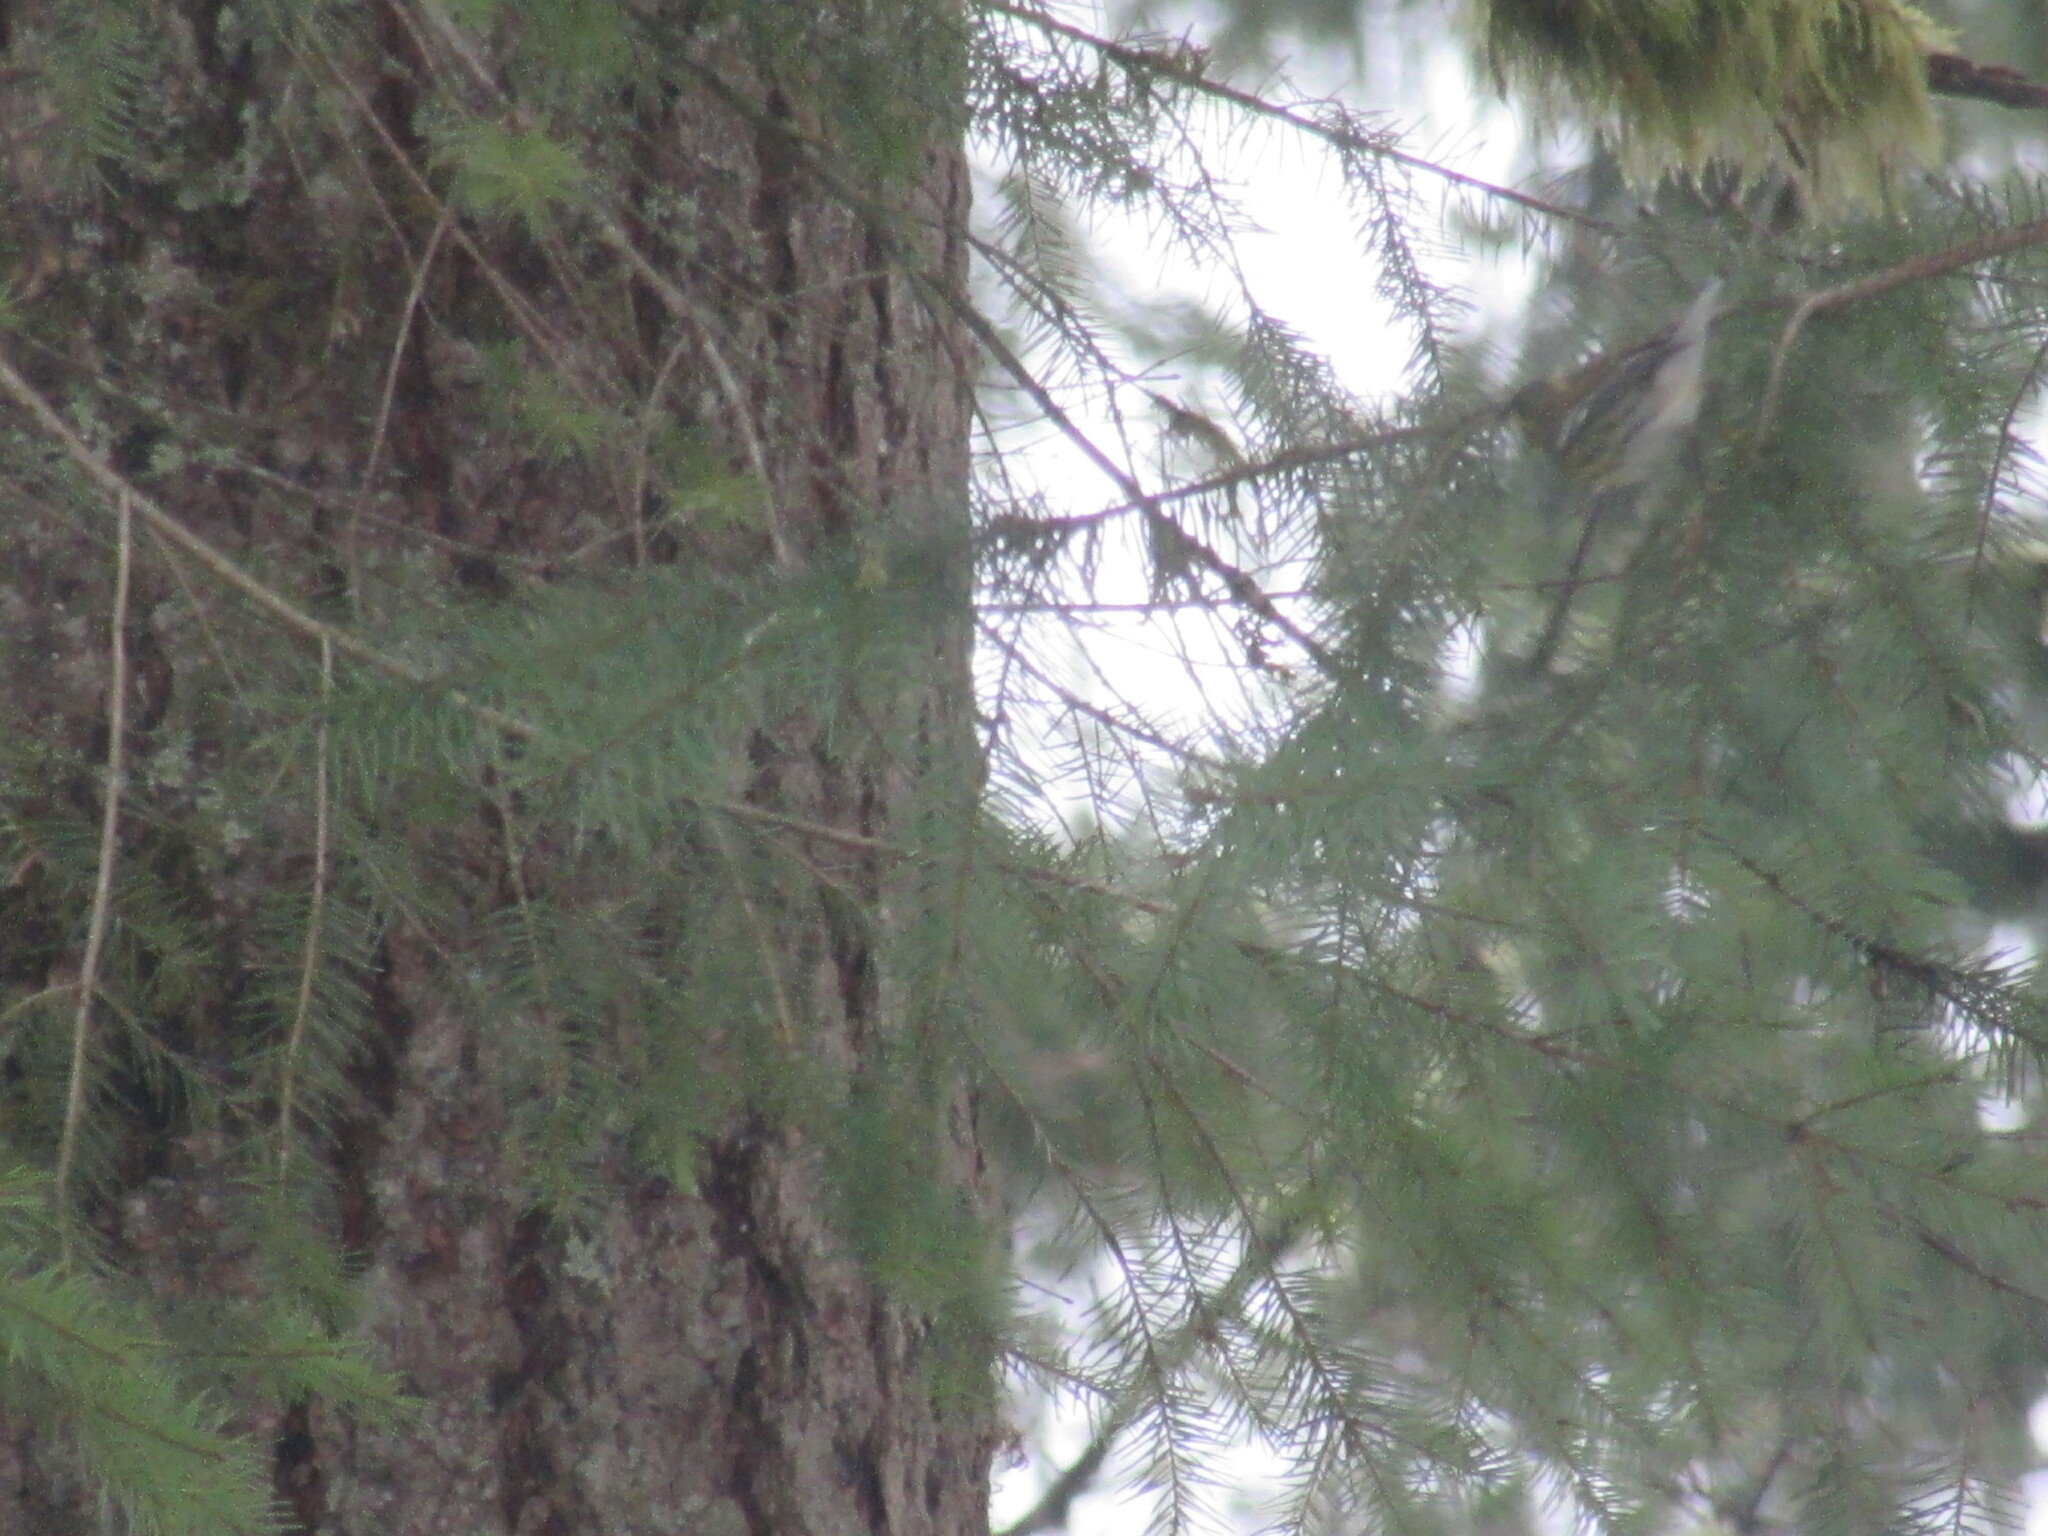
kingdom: Animalia
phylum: Chordata
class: Aves
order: Passeriformes
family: Parulidae
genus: Setophaga
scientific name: Setophaga townsendi
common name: Townsend's warbler
